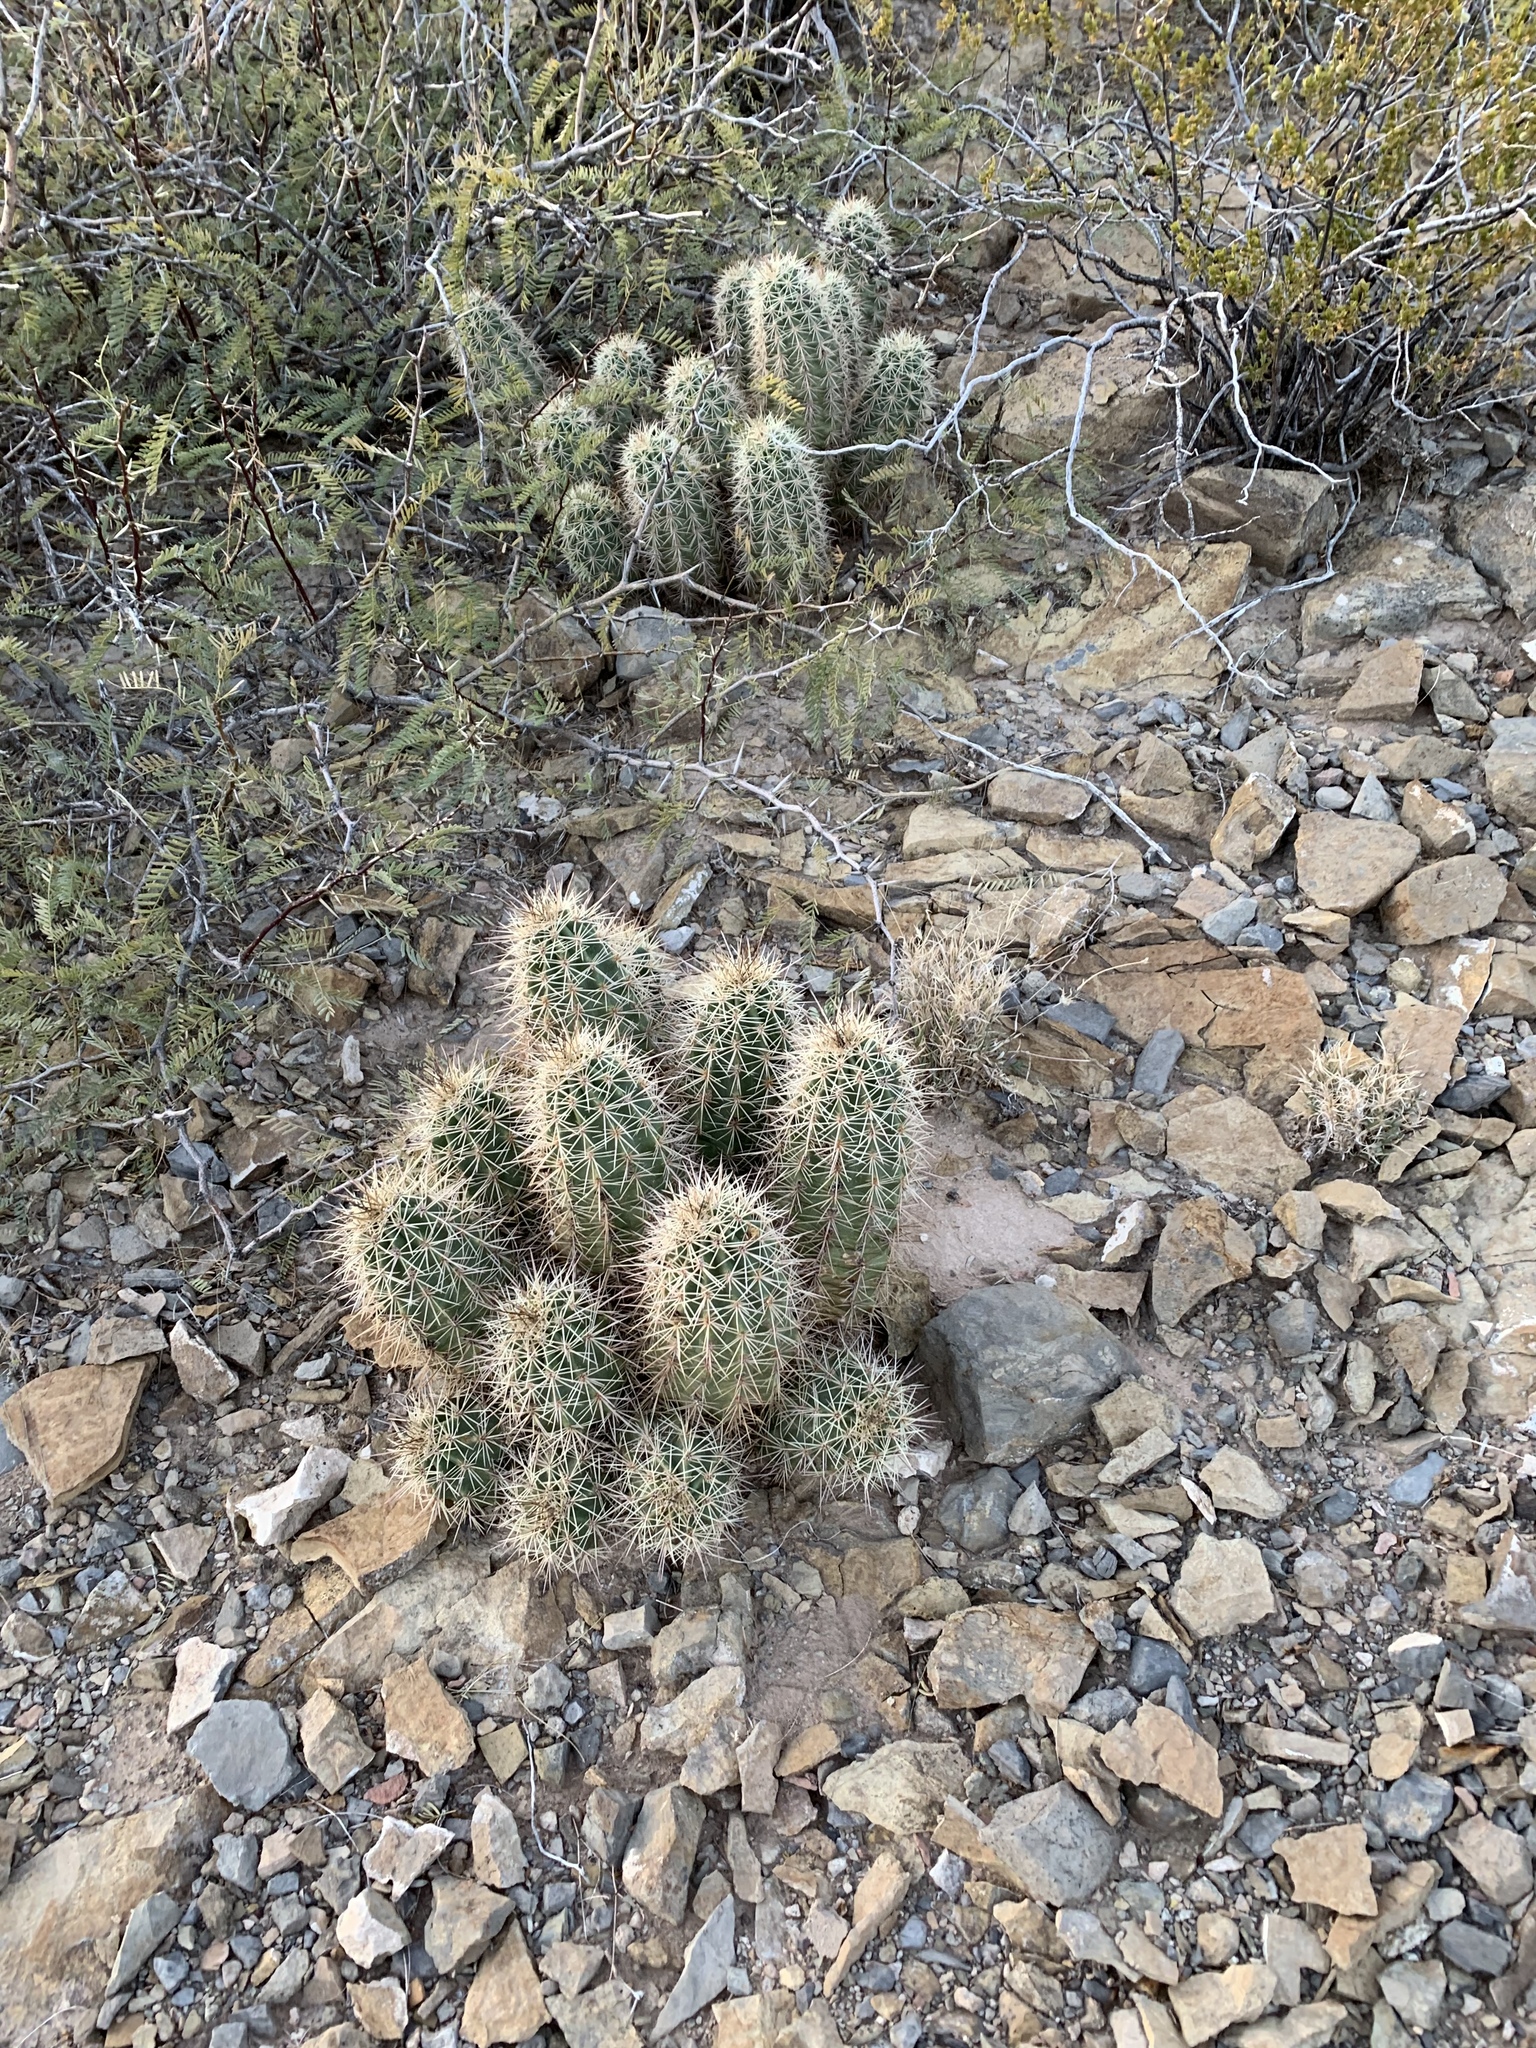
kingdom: Plantae
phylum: Tracheophyta
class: Magnoliopsida
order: Caryophyllales
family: Cactaceae
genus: Echinocereus
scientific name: Echinocereus coccineus
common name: Scarlet hedgehog cactus
